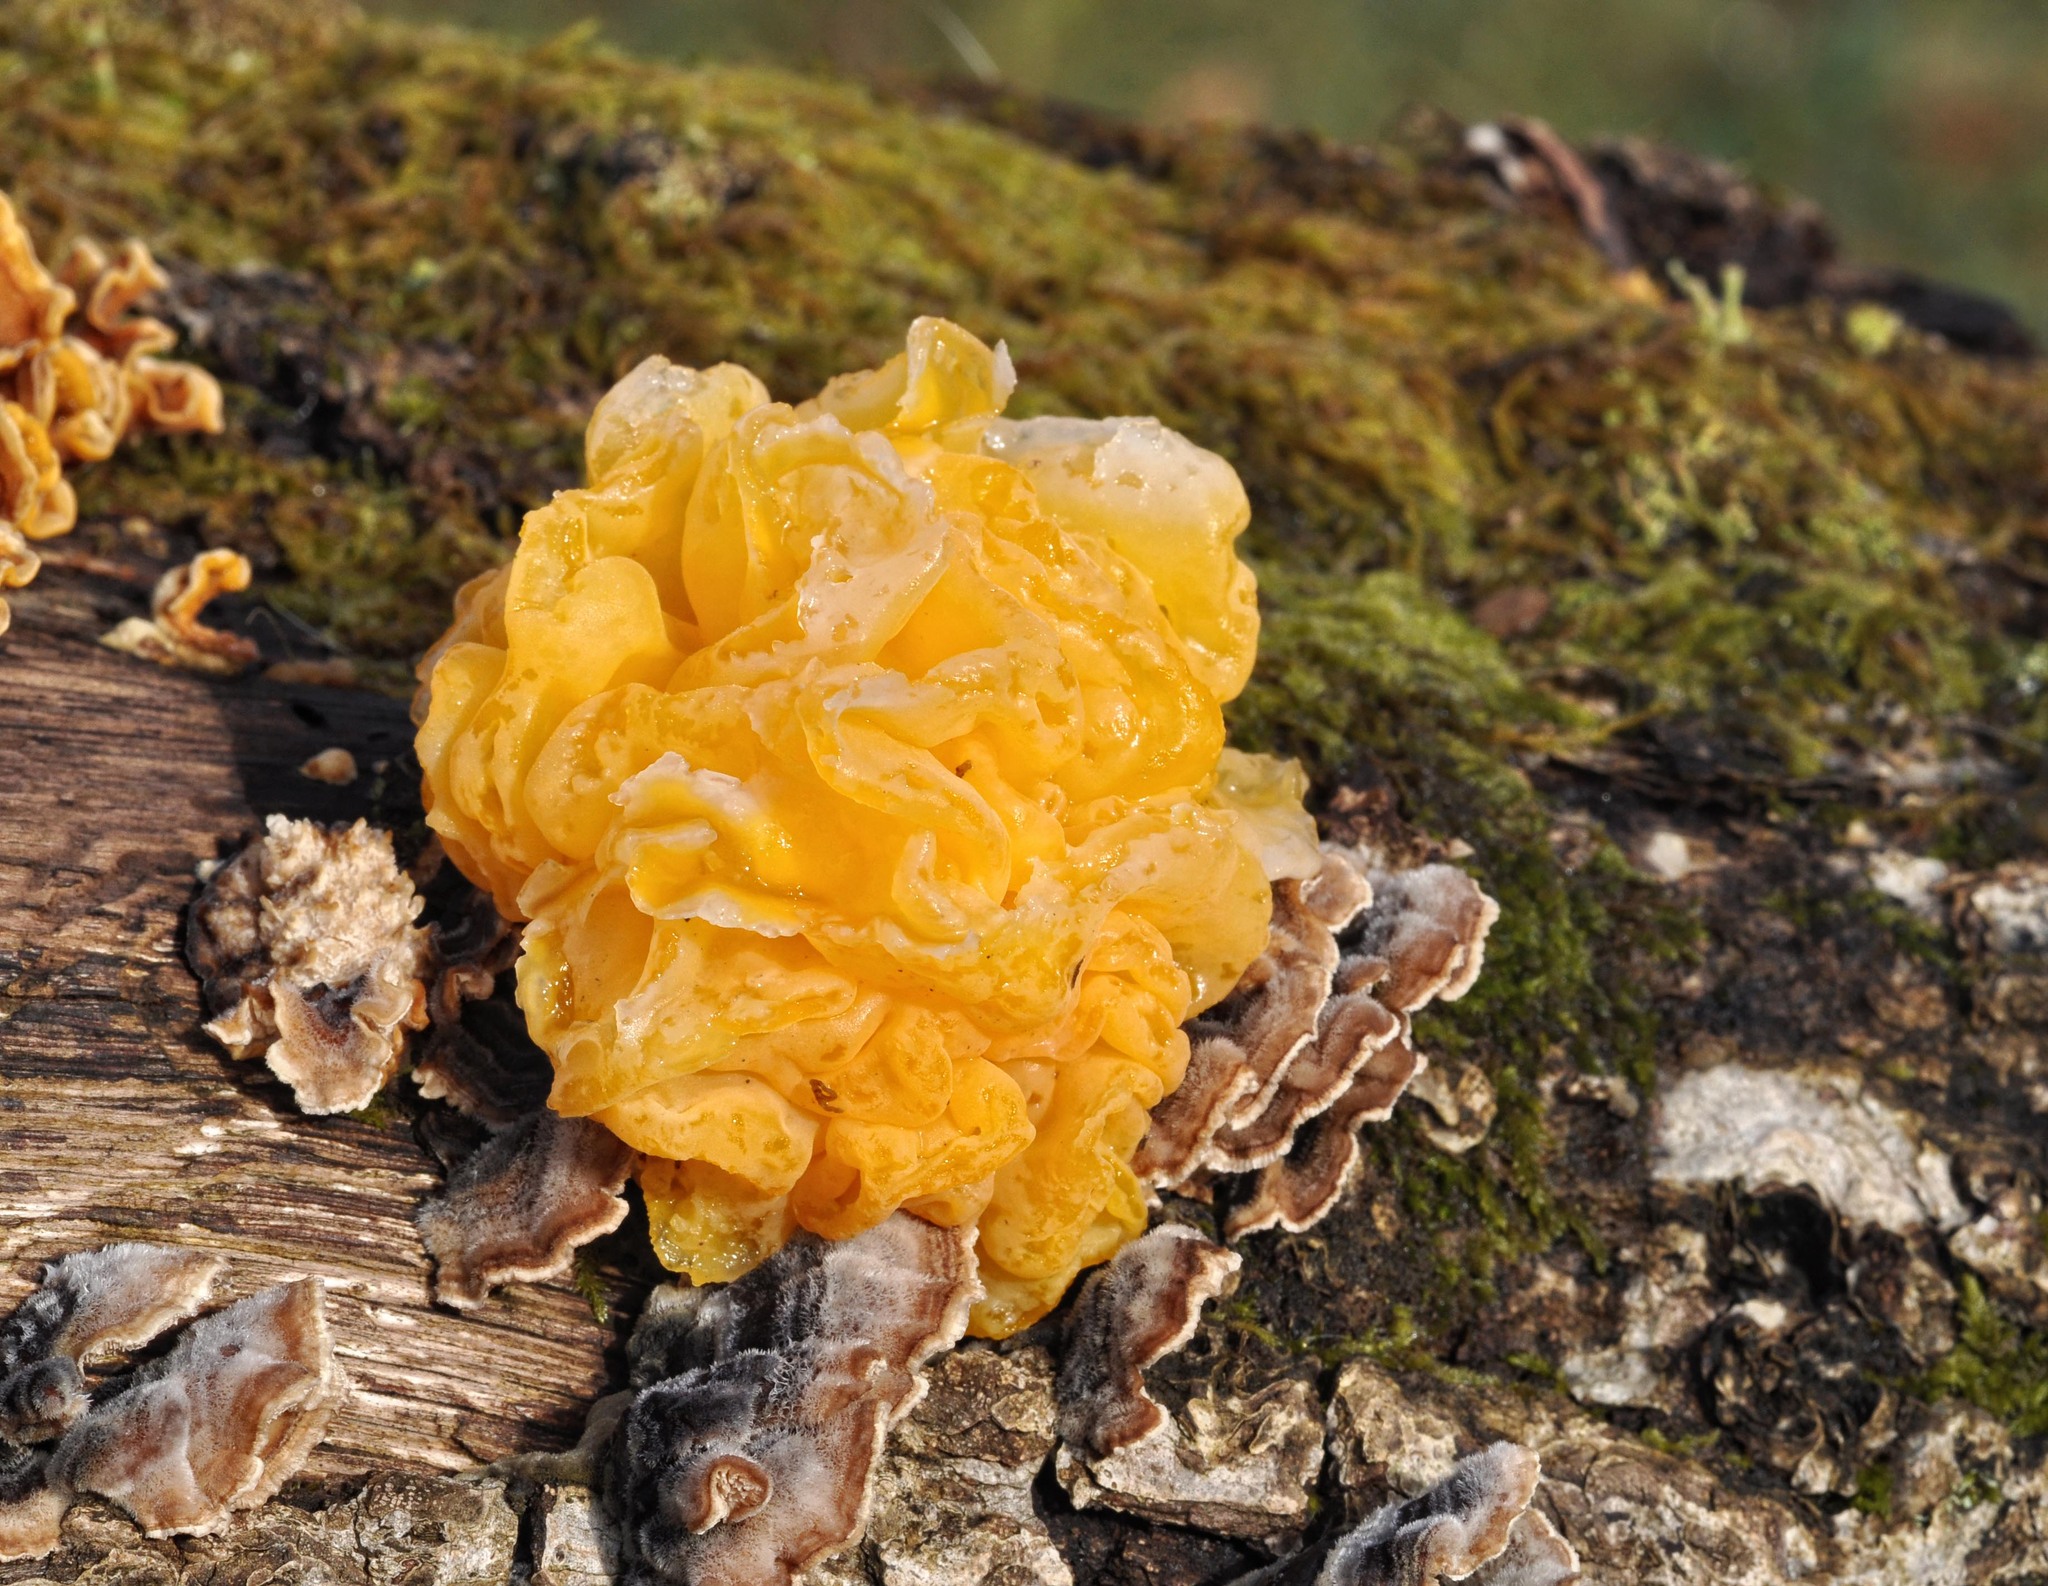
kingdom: Fungi
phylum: Basidiomycota
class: Tremellomycetes
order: Tremellales
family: Naemateliaceae
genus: Naematelia
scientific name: Naematelia aurantia
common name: Golden ear
